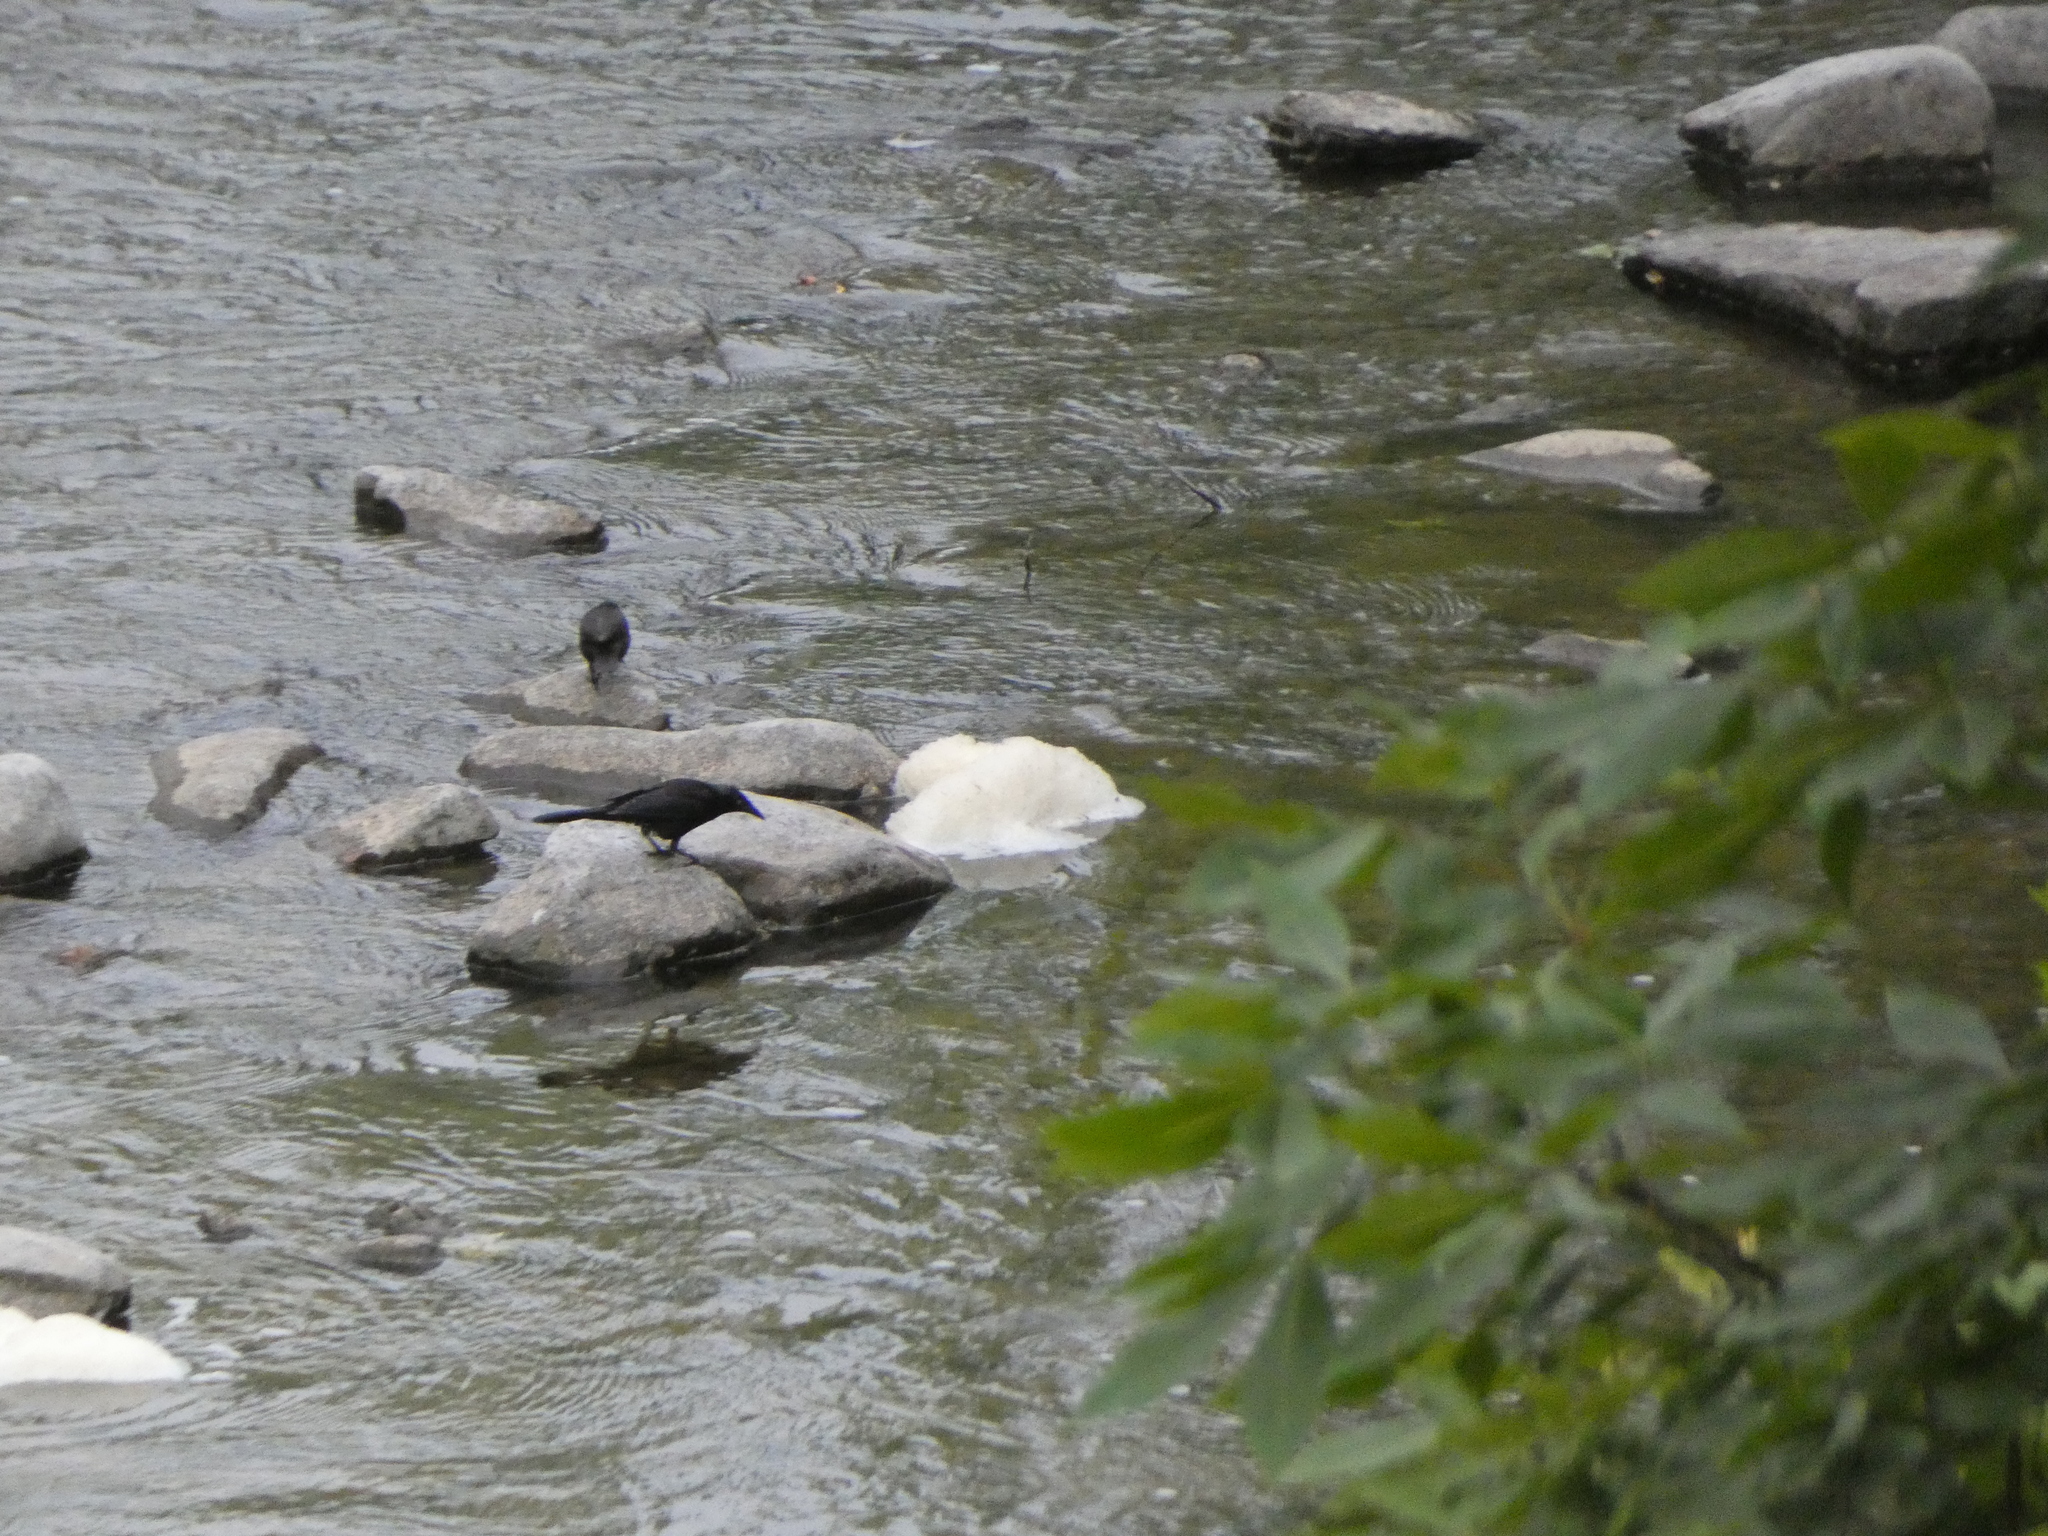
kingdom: Animalia
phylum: Chordata
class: Aves
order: Passeriformes
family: Icteridae
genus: Quiscalus
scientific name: Quiscalus quiscula
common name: Common grackle
